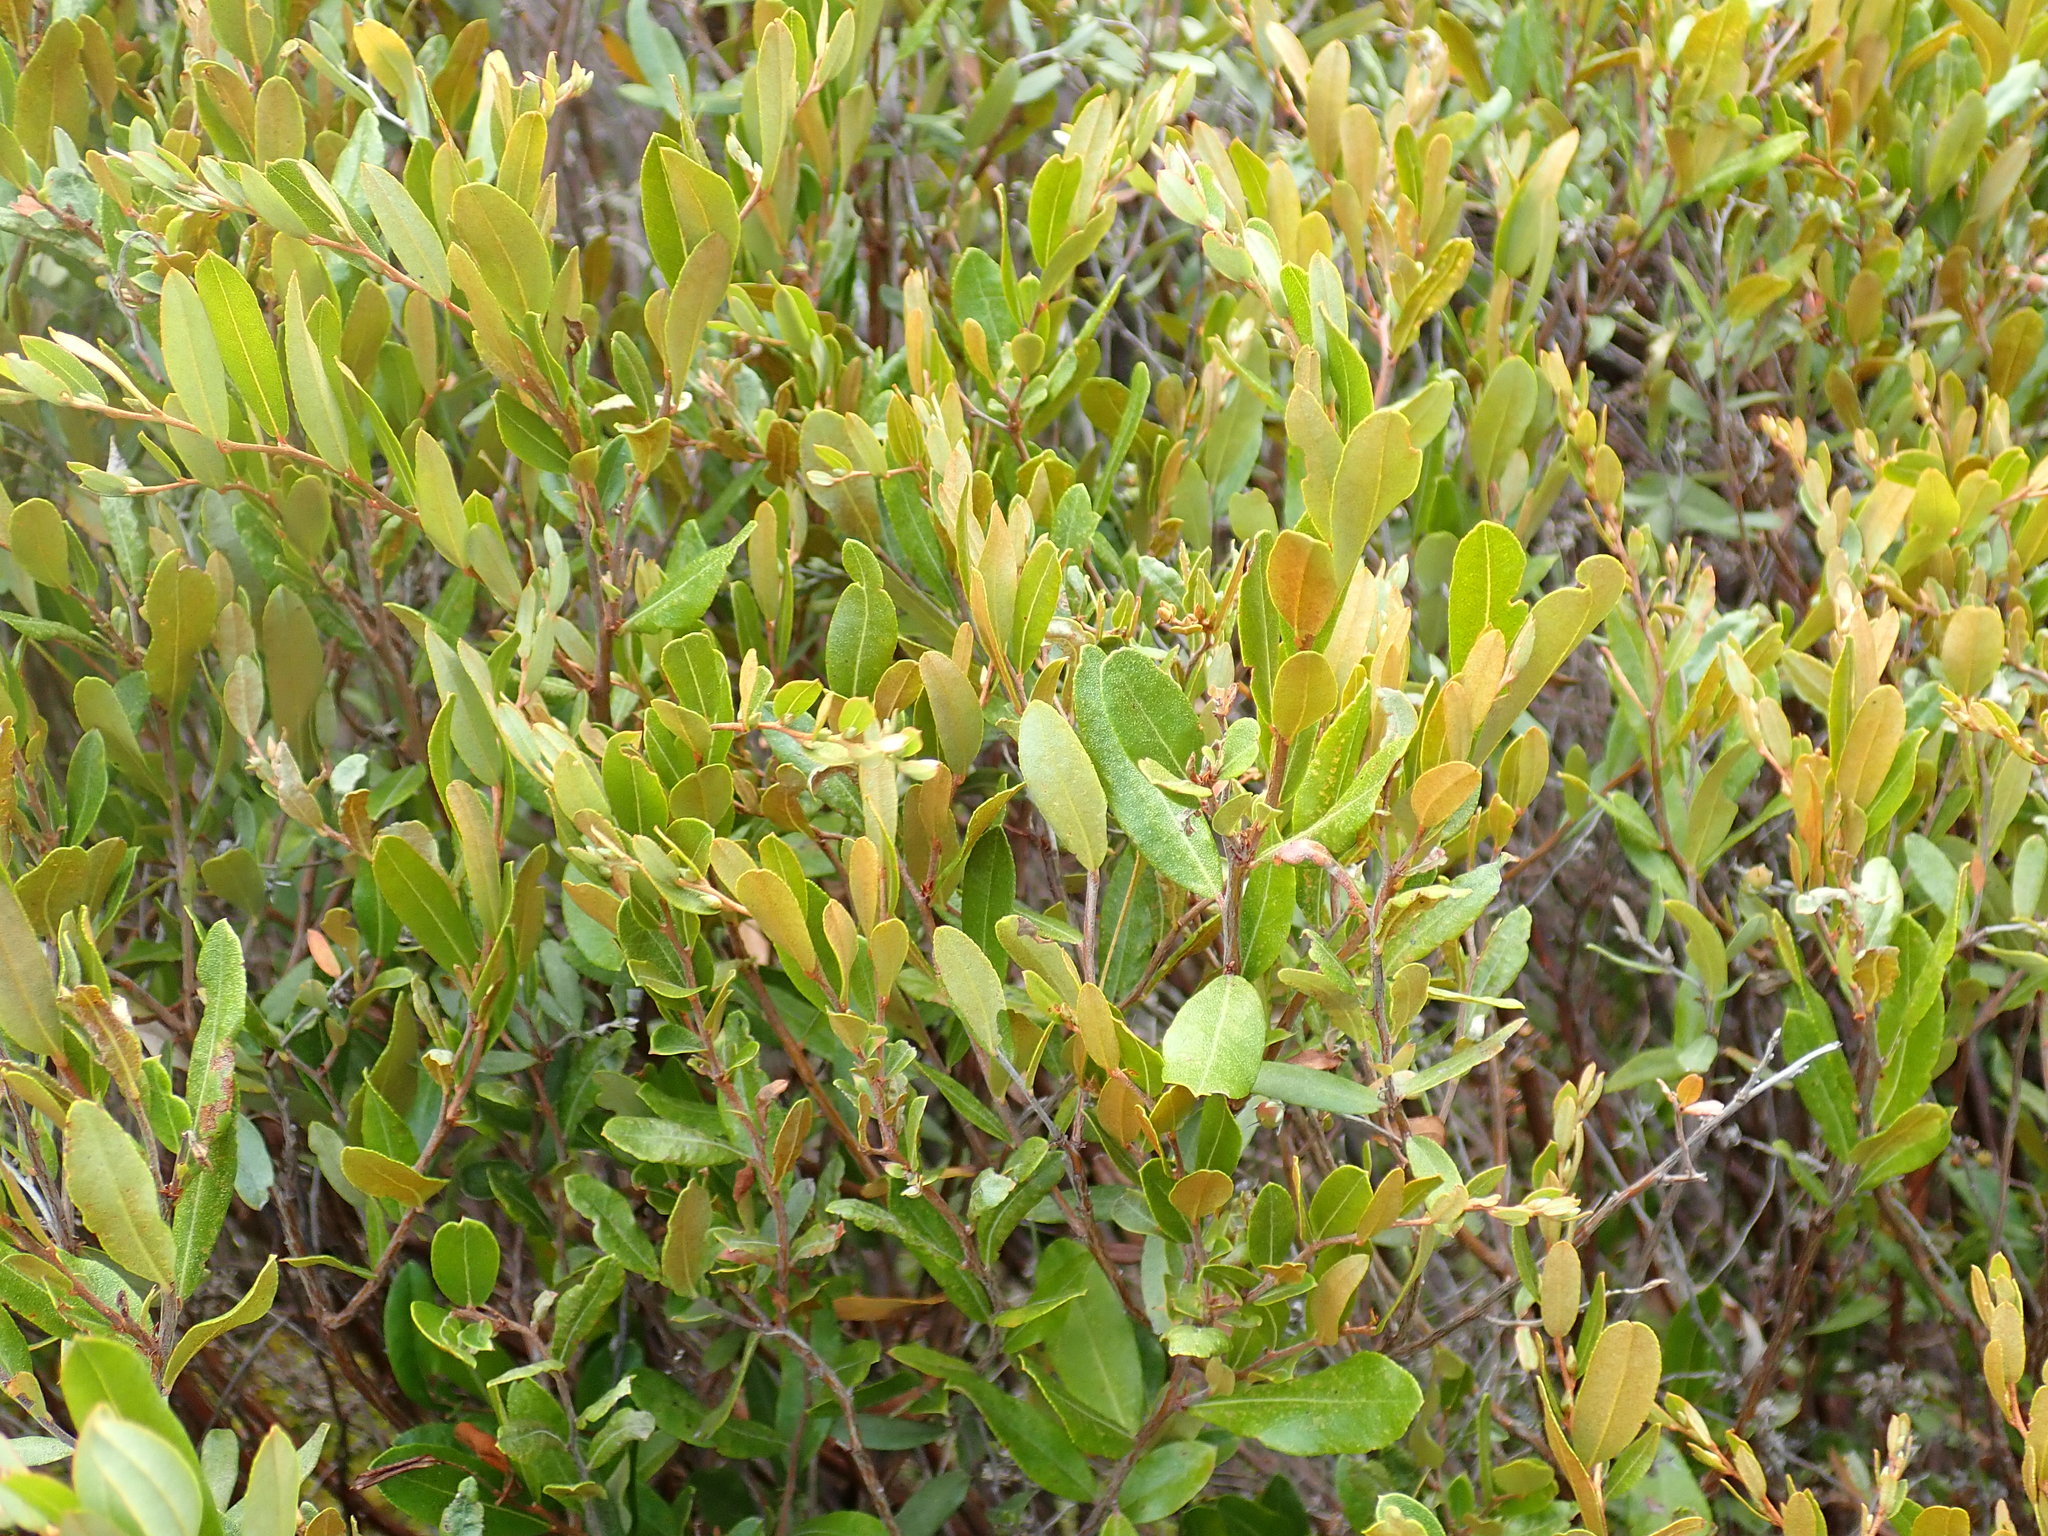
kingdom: Plantae
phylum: Tracheophyta
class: Magnoliopsida
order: Ericales
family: Ericaceae
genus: Chamaedaphne
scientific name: Chamaedaphne calyculata
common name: Leatherleaf
